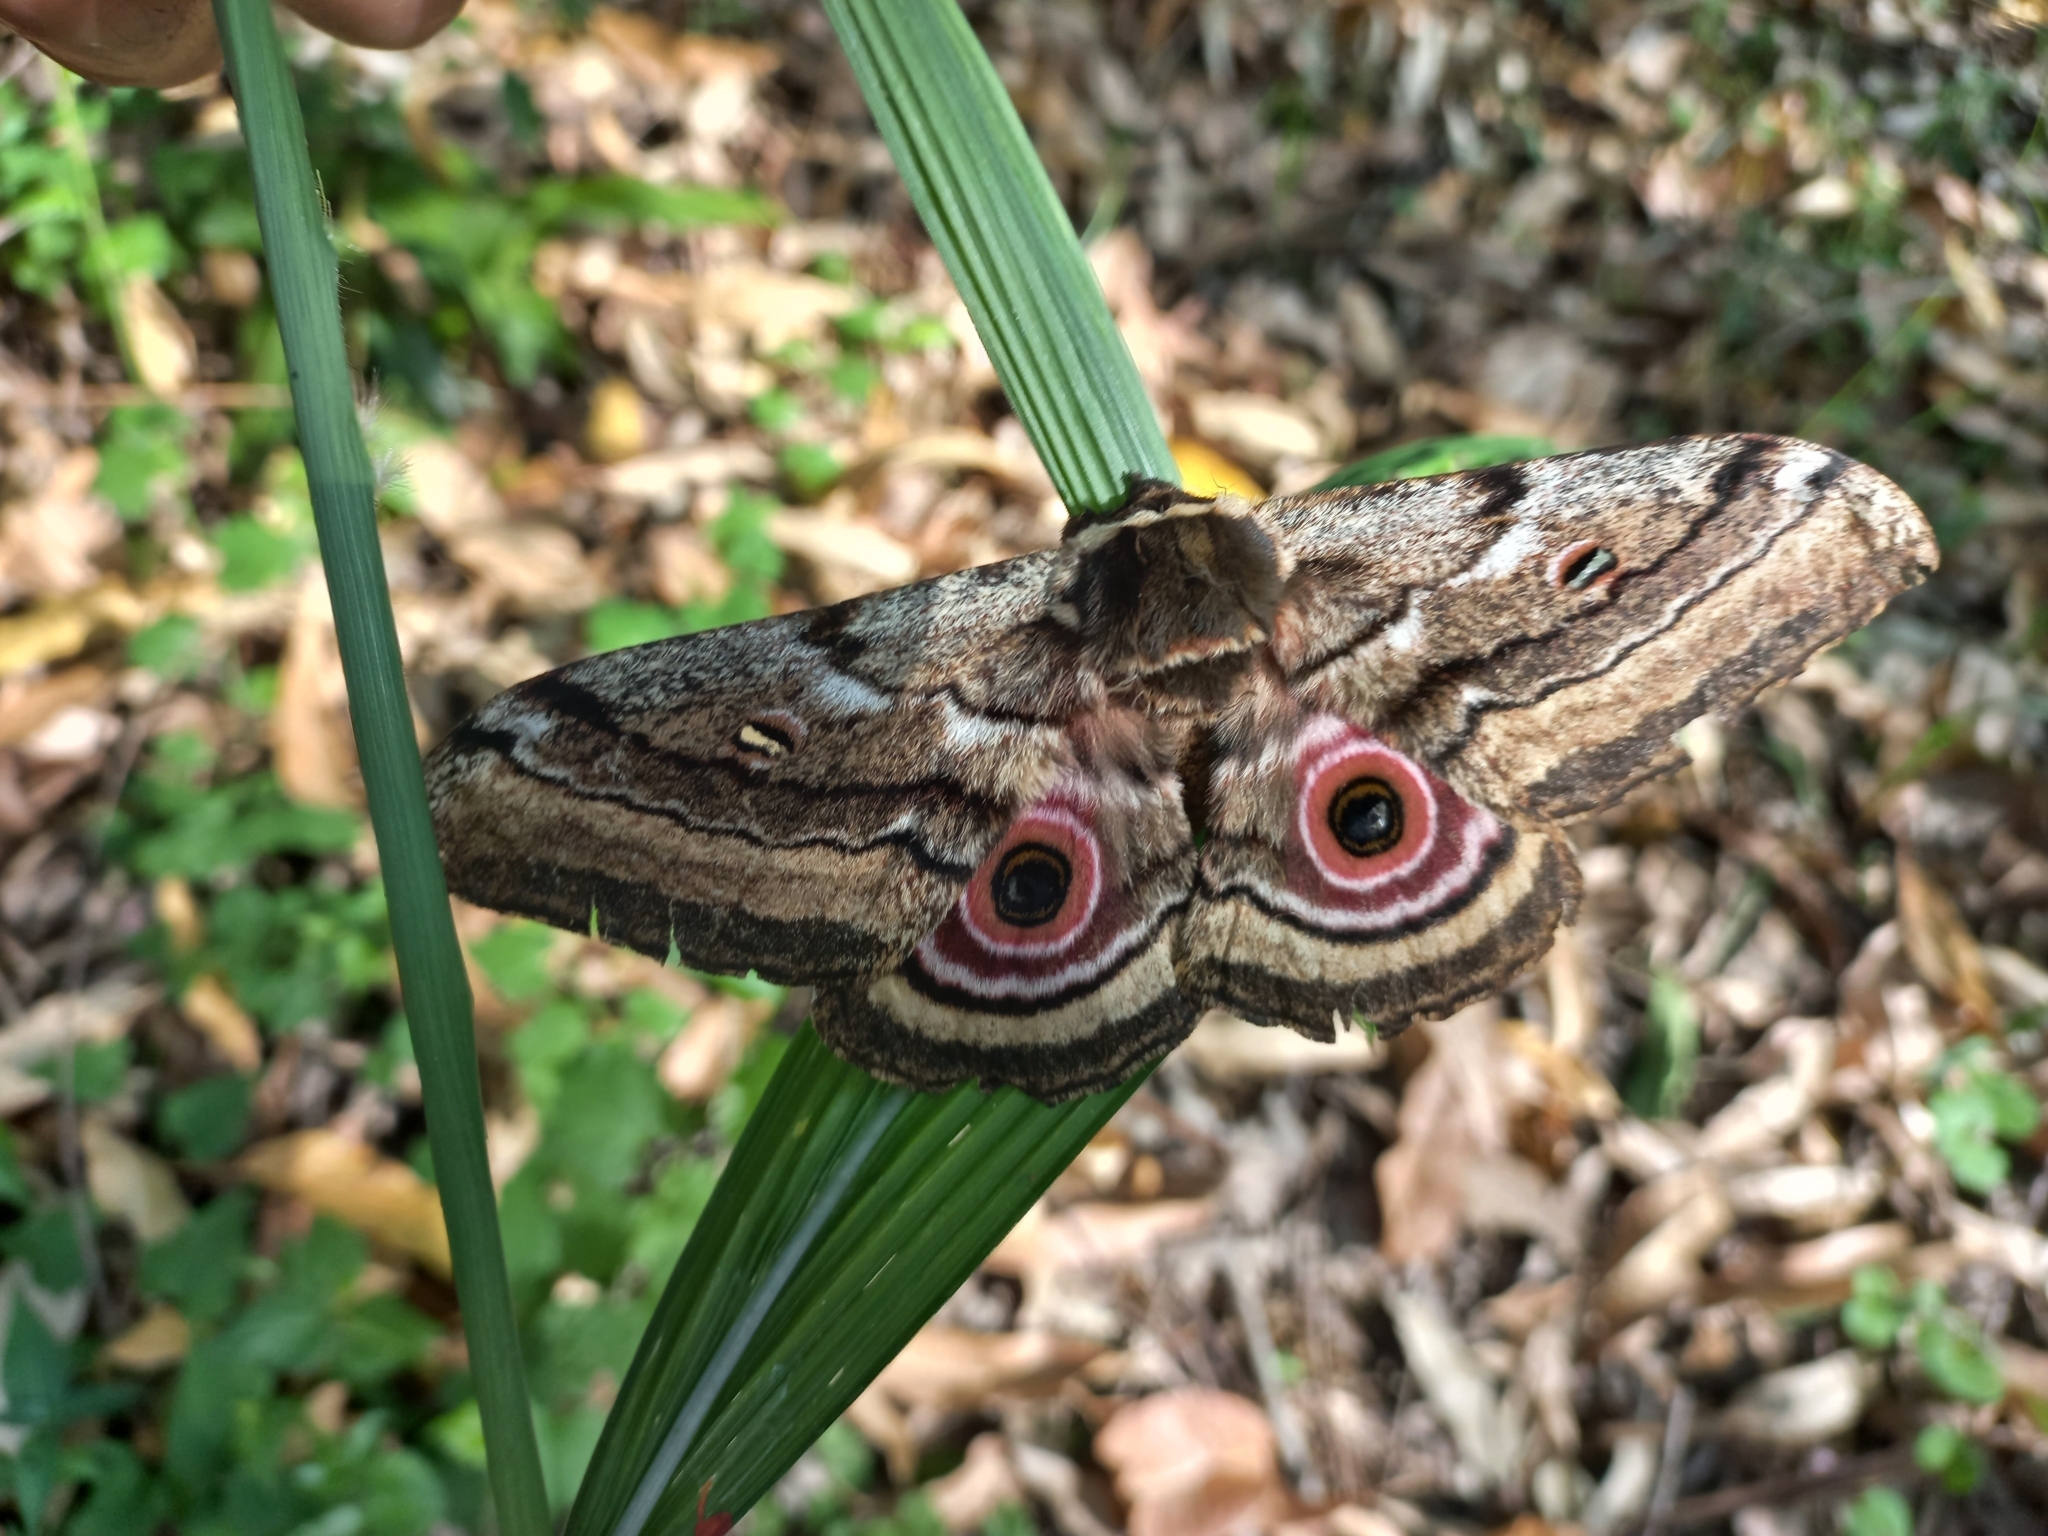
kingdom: Animalia
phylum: Arthropoda
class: Insecta
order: Lepidoptera
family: Saturniidae
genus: Gynanisa
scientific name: Gynanisa maja
